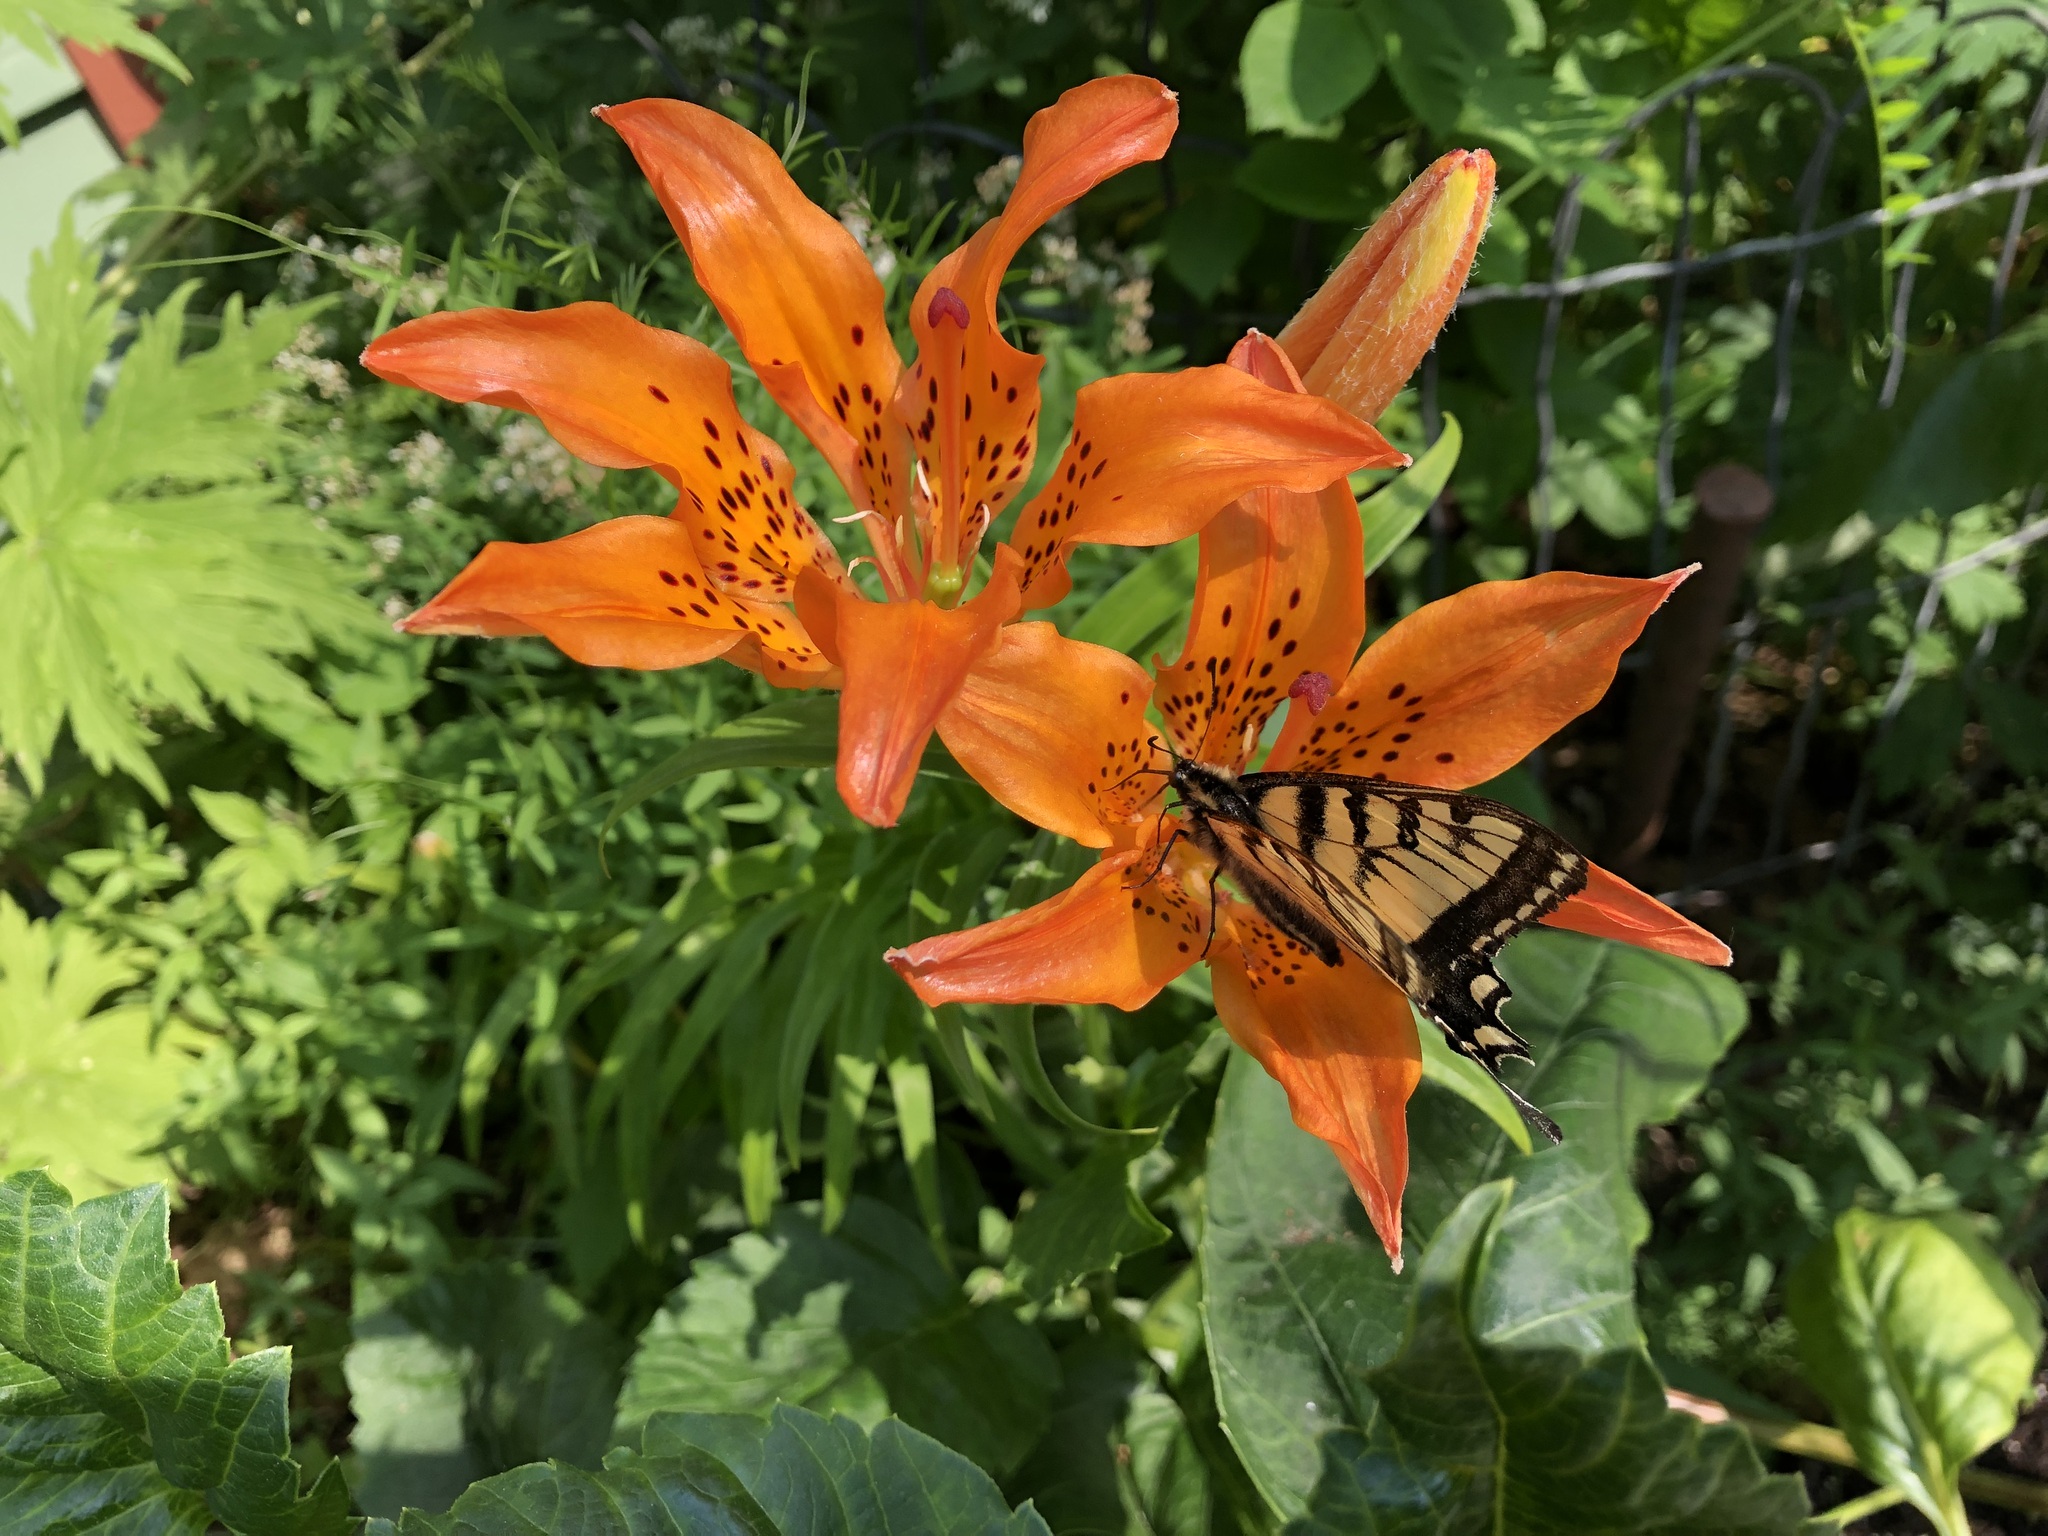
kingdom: Animalia
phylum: Arthropoda
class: Insecta
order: Lepidoptera
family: Papilionidae
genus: Papilio
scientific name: Papilio canadensis
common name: Canadian tiger swallowtail
